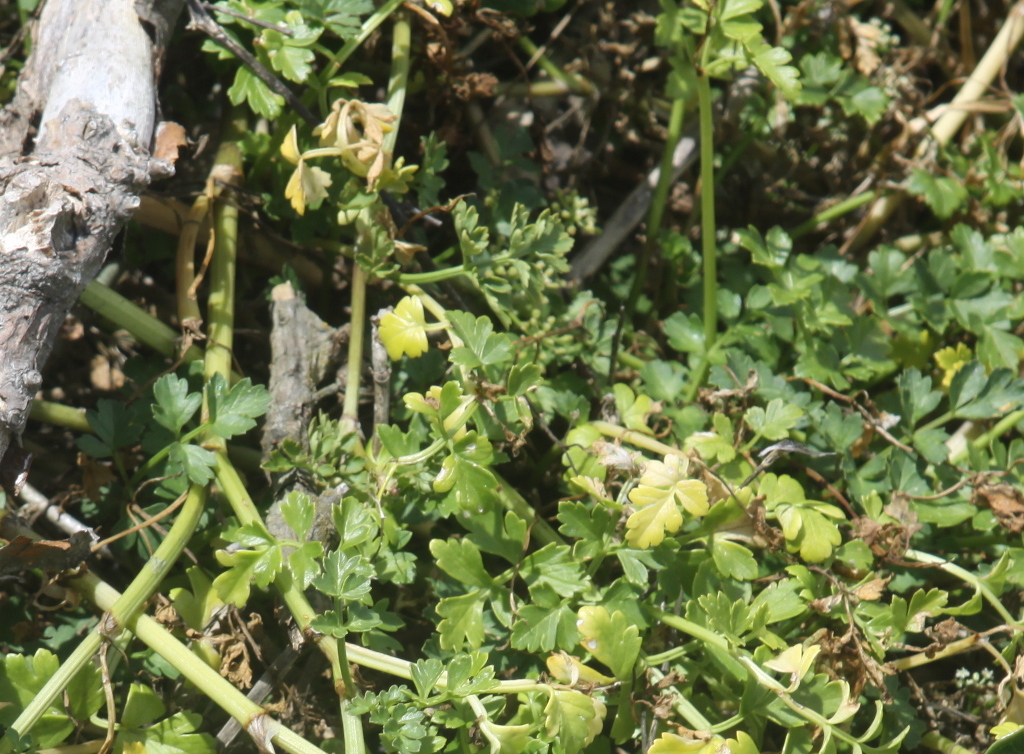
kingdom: Plantae
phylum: Tracheophyta
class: Magnoliopsida
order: Apiales
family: Apiaceae
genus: Apium
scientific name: Apium prostratum
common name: Prostrate marshwort
